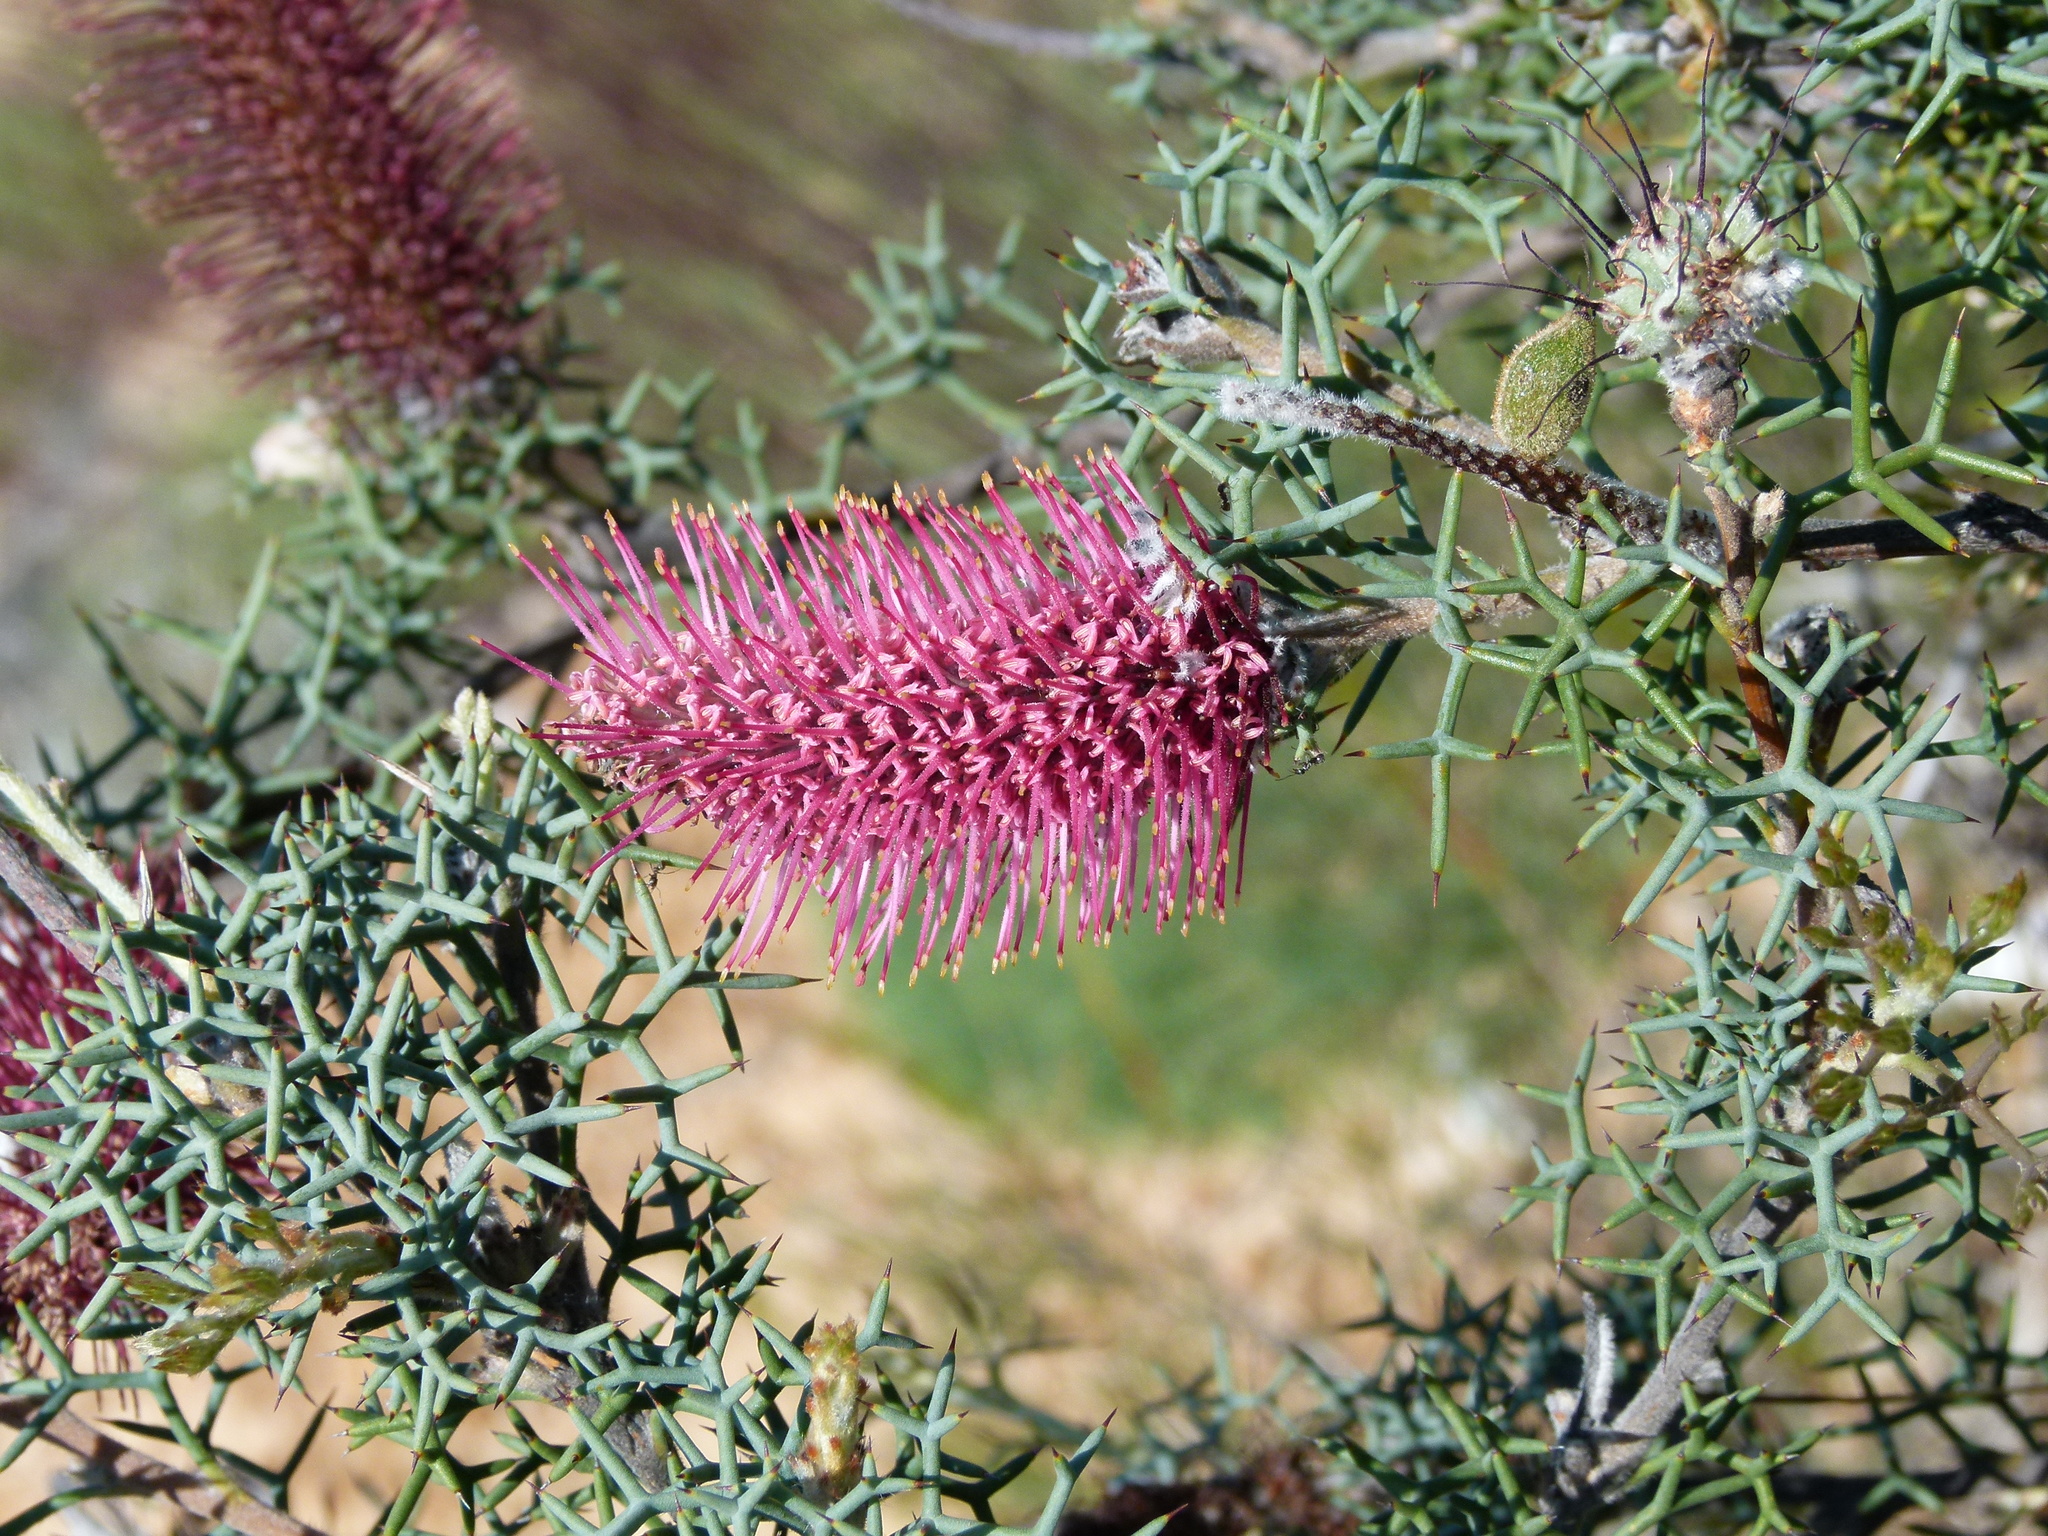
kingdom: Plantae
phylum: Tracheophyta
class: Magnoliopsida
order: Proteales
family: Proteaceae
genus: Grevillea
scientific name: Grevillea paradoxa
